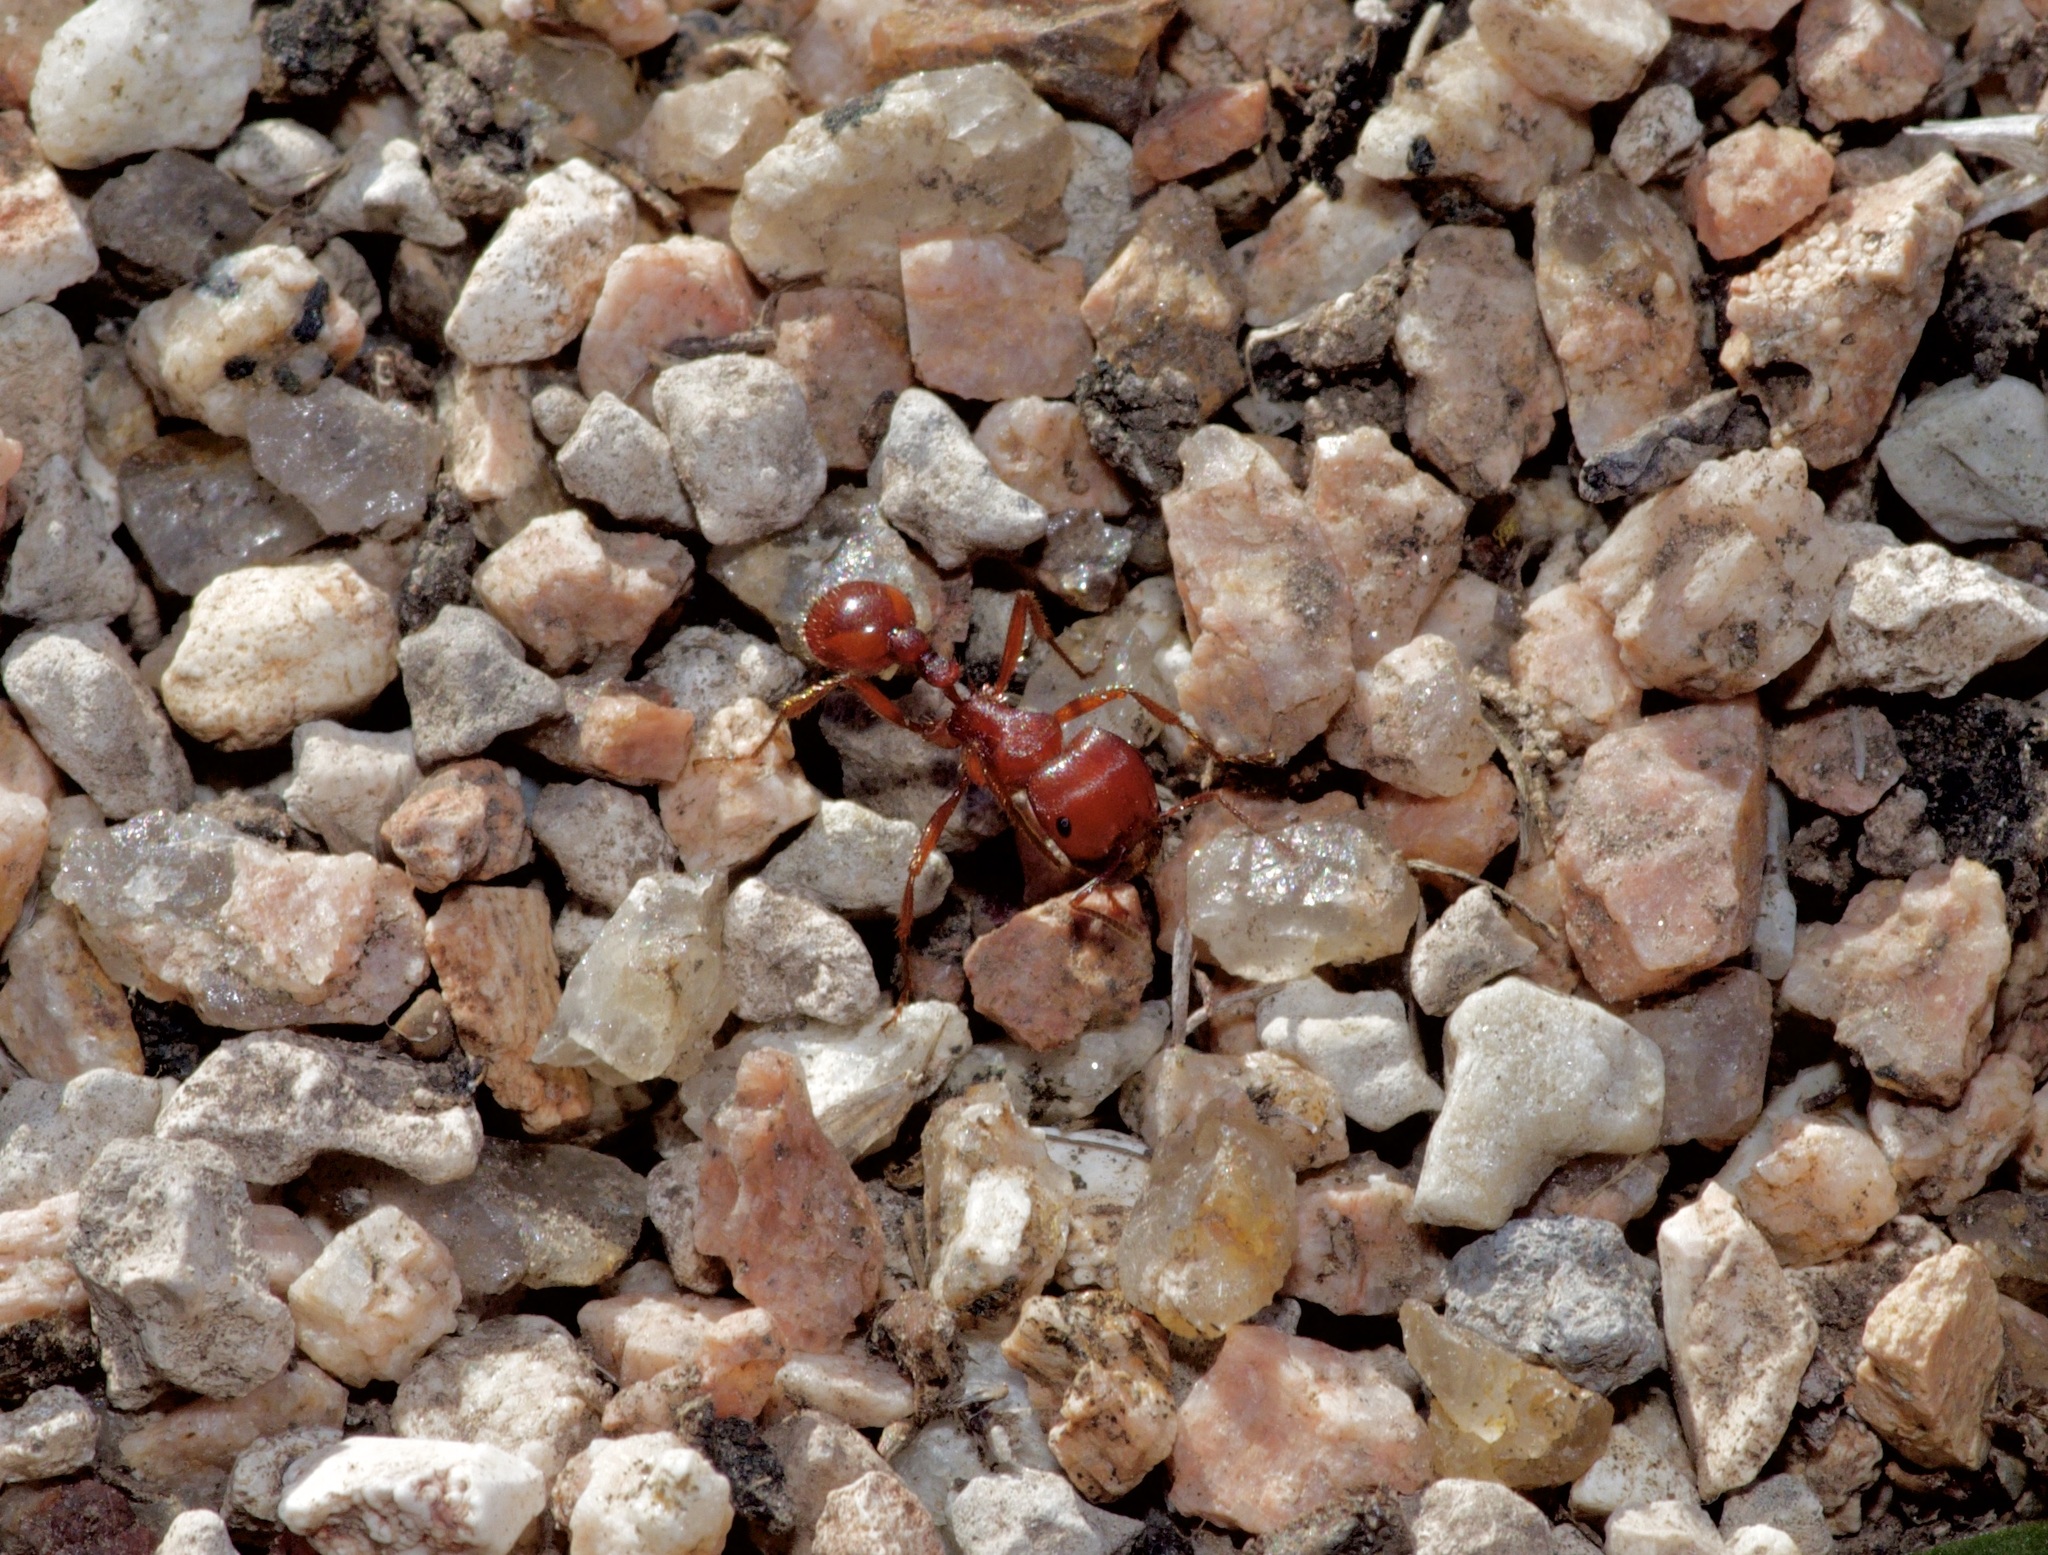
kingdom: Animalia
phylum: Arthropoda
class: Insecta
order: Hymenoptera
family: Formicidae
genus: Pogonomyrmex
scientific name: Pogonomyrmex barbatus
